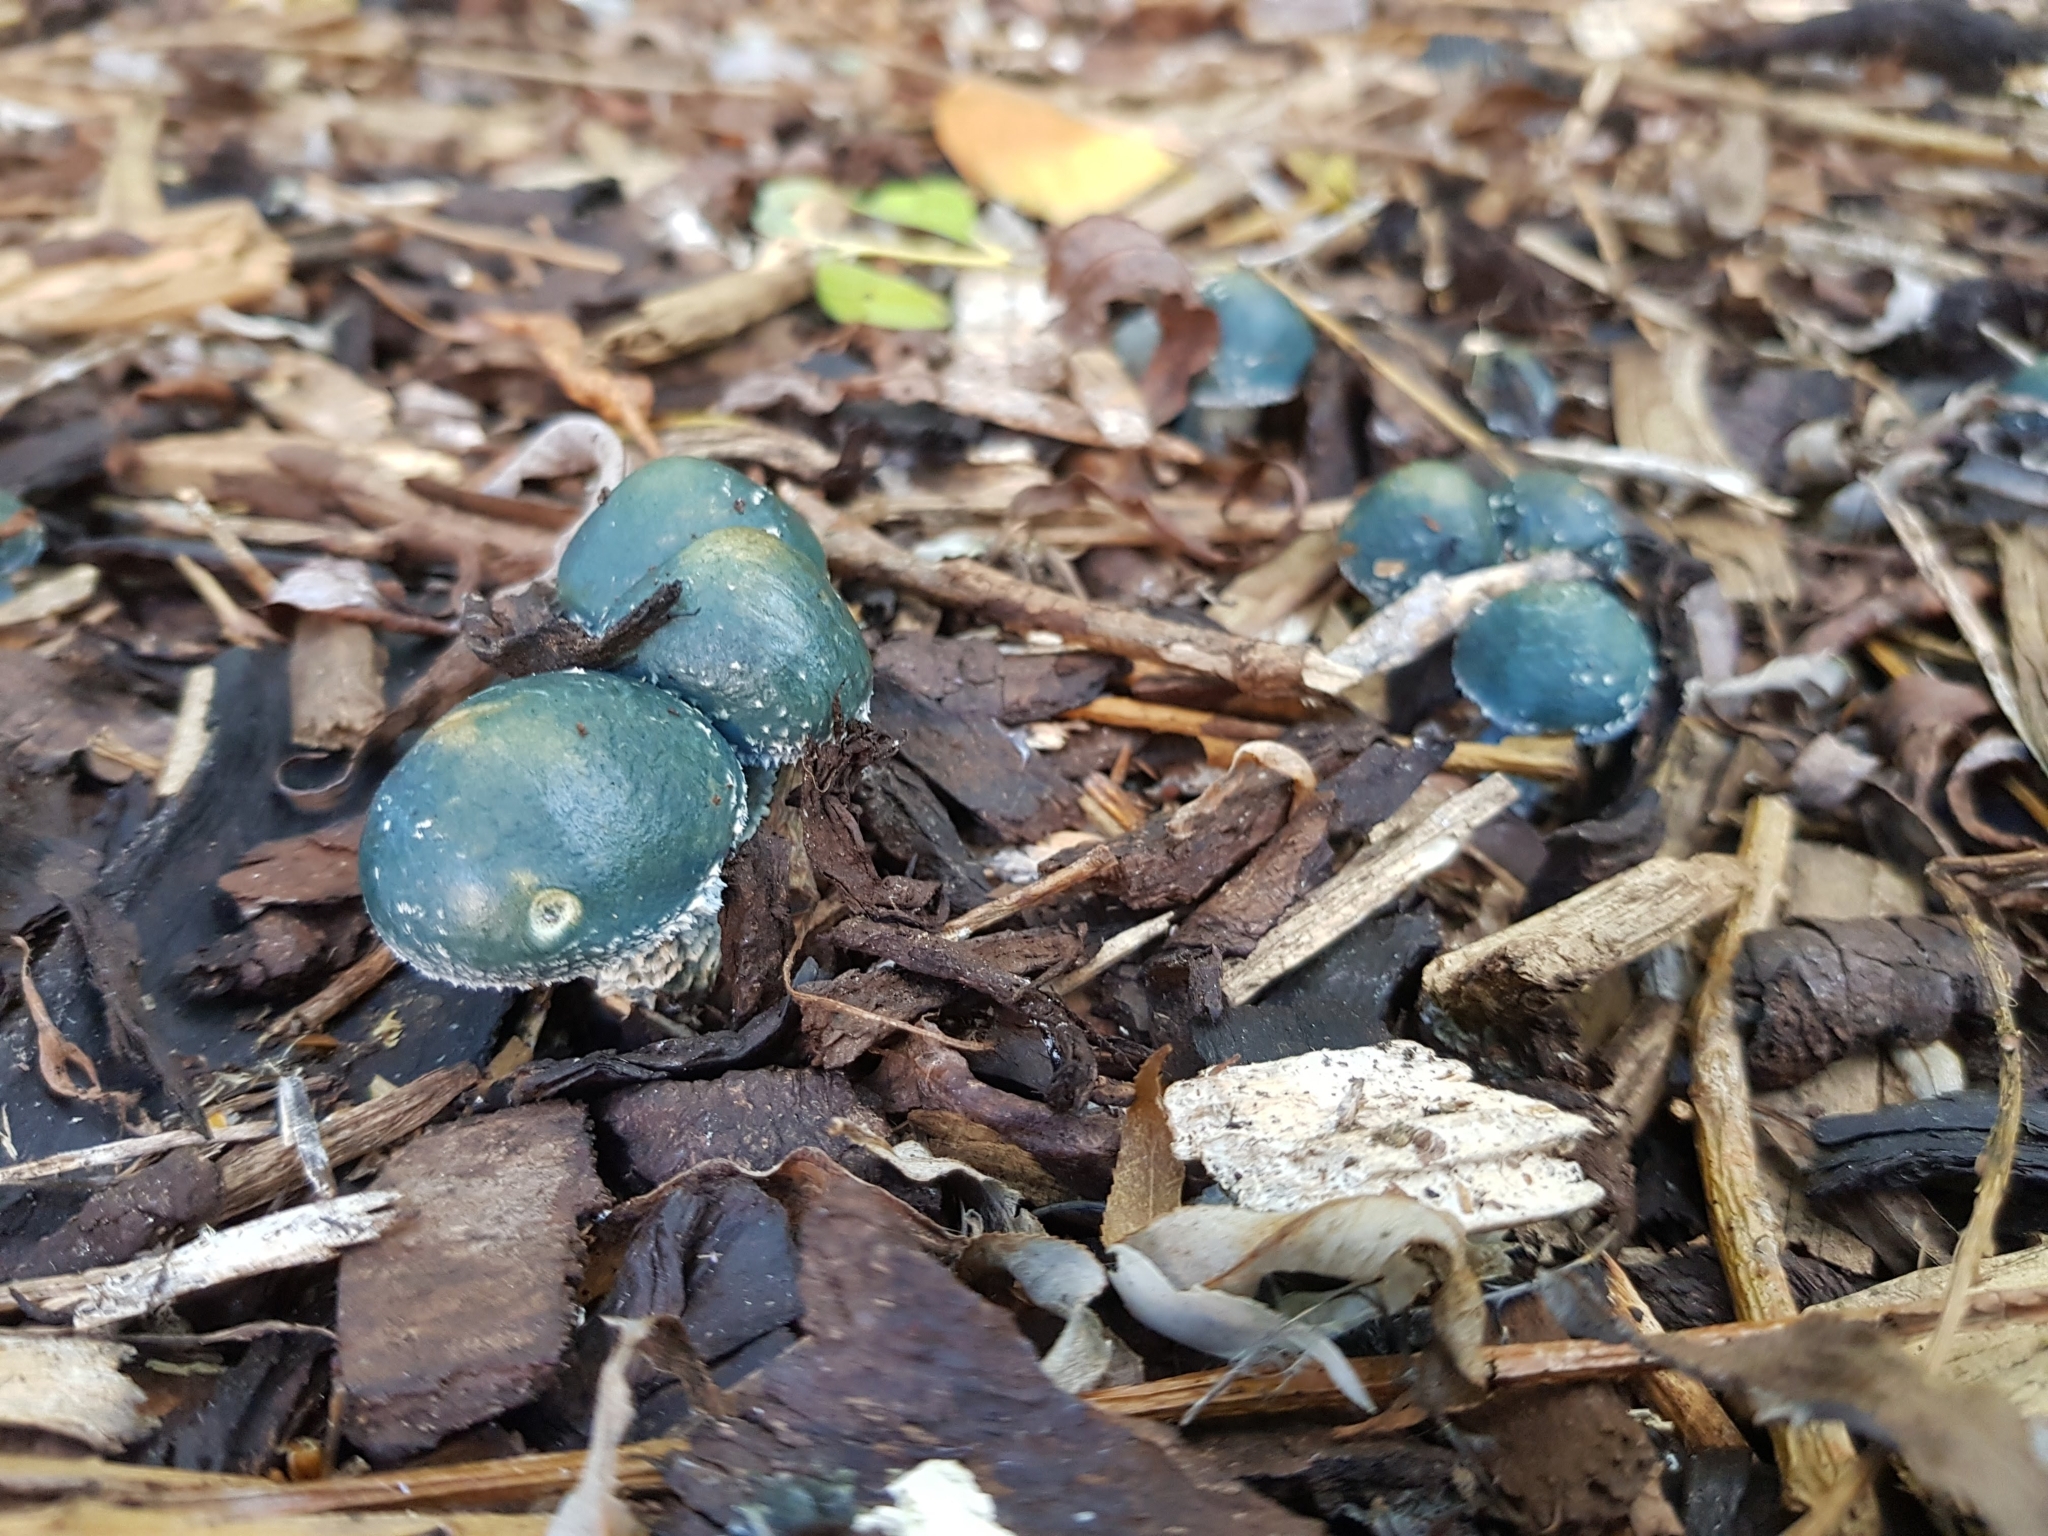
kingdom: Fungi
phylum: Basidiomycota
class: Agaricomycetes
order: Agaricales
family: Strophariaceae
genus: Stropharia
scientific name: Stropharia caerulea
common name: Blue roundhead
